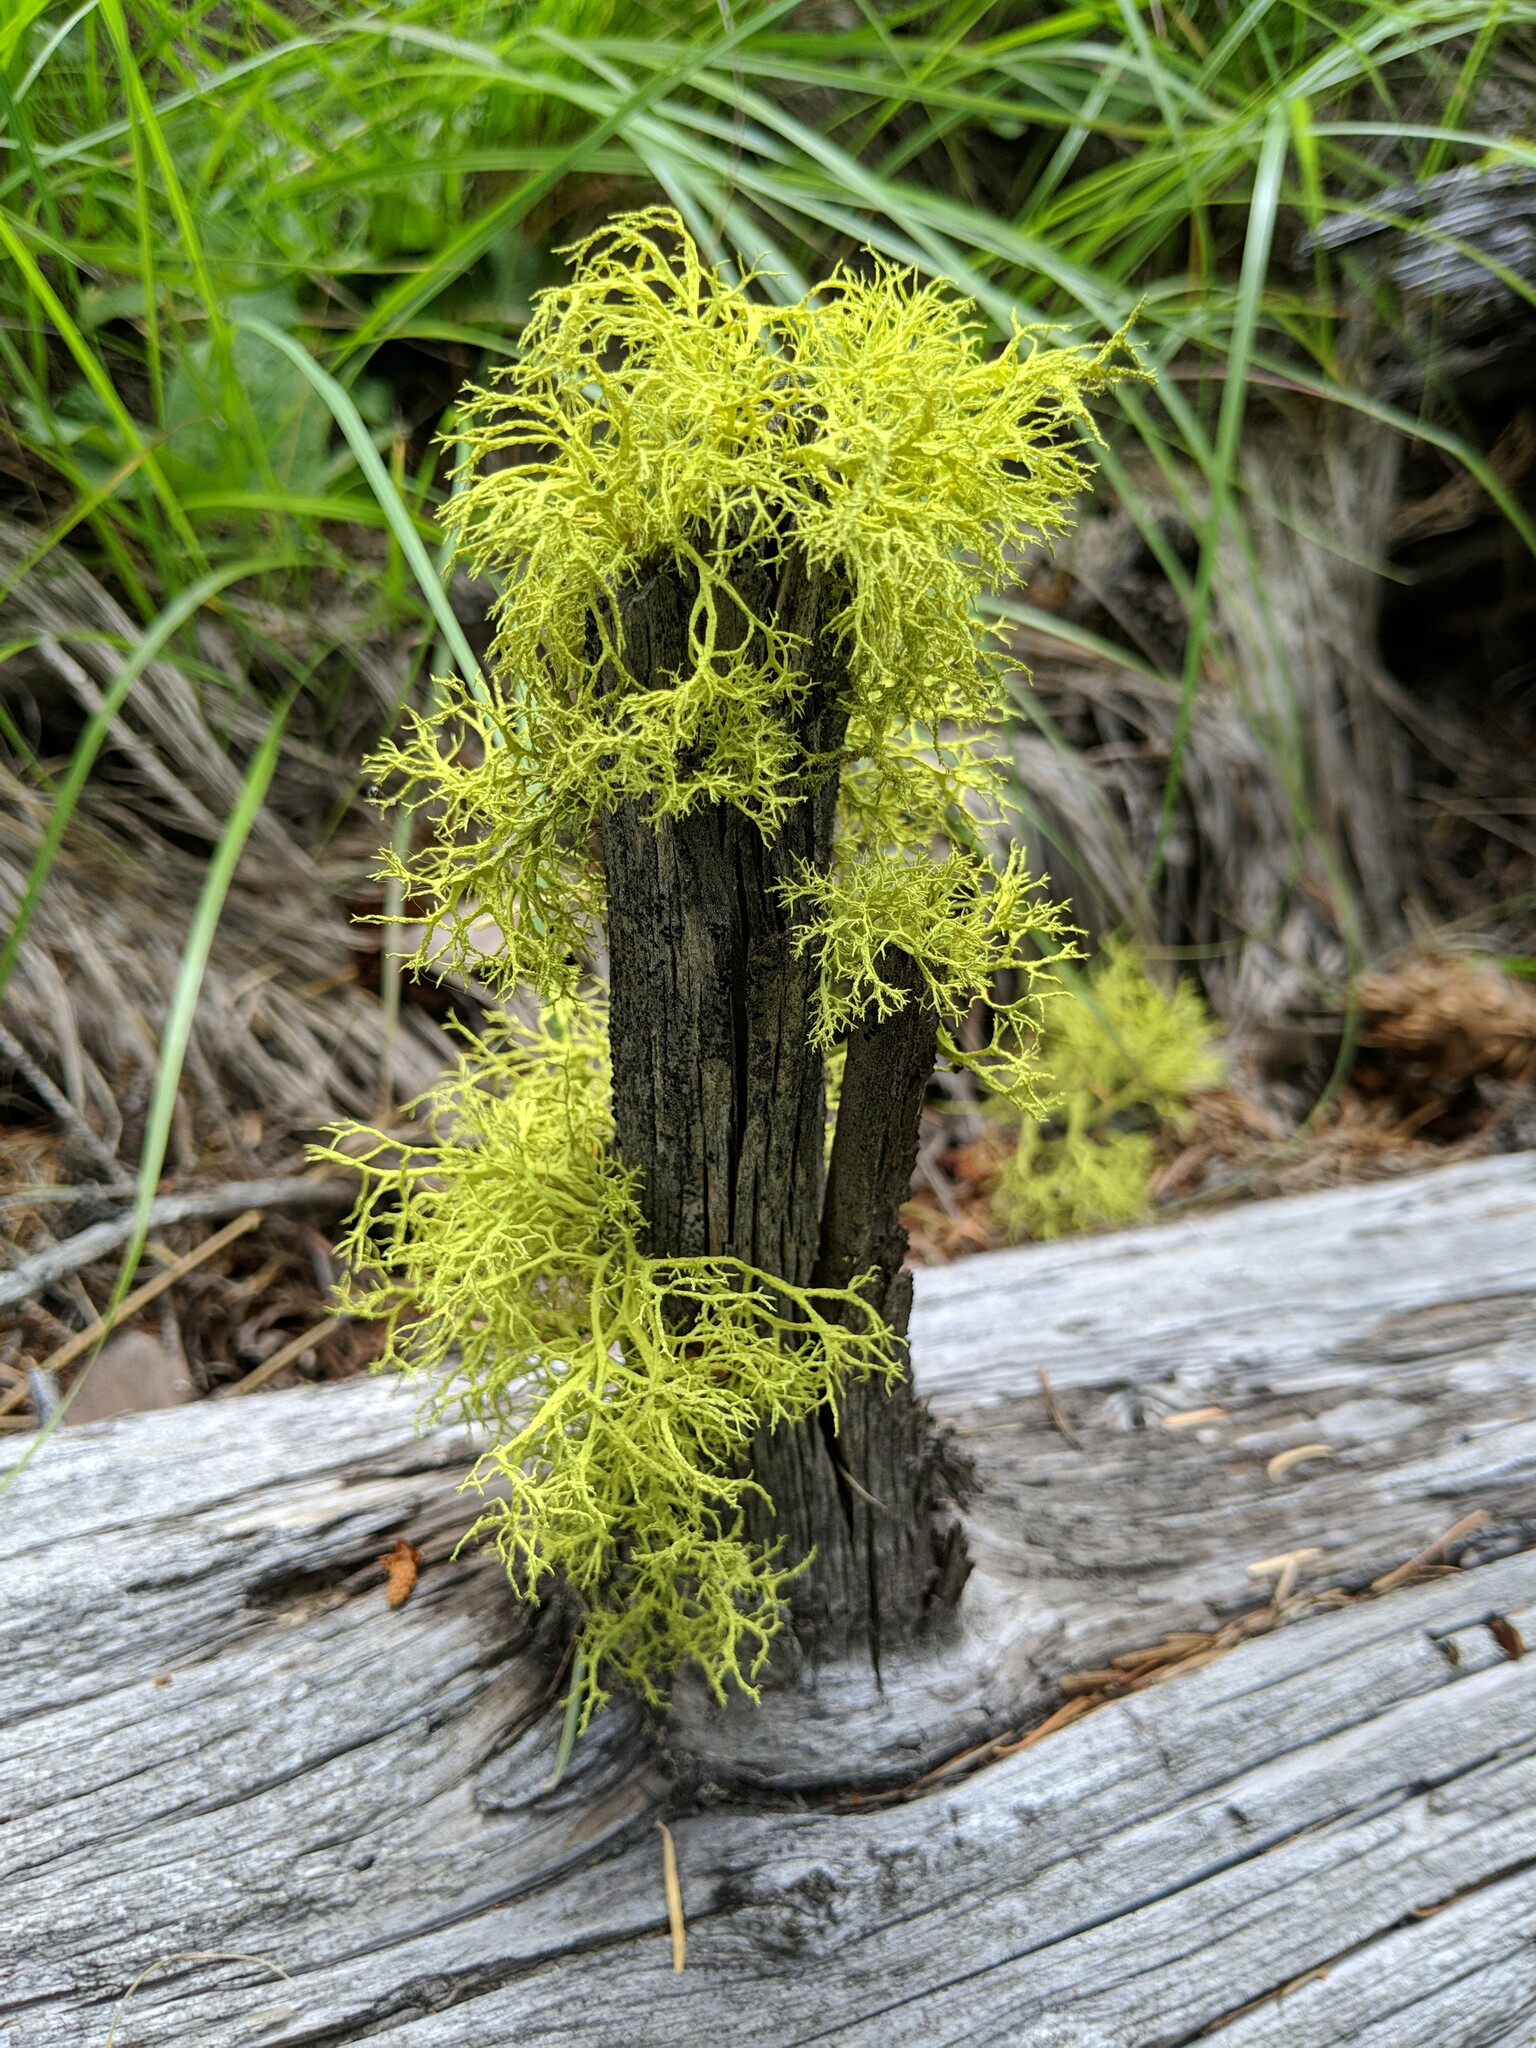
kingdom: Fungi
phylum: Ascomycota
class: Lecanoromycetes
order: Lecanorales
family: Parmeliaceae
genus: Letharia
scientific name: Letharia vulpina
